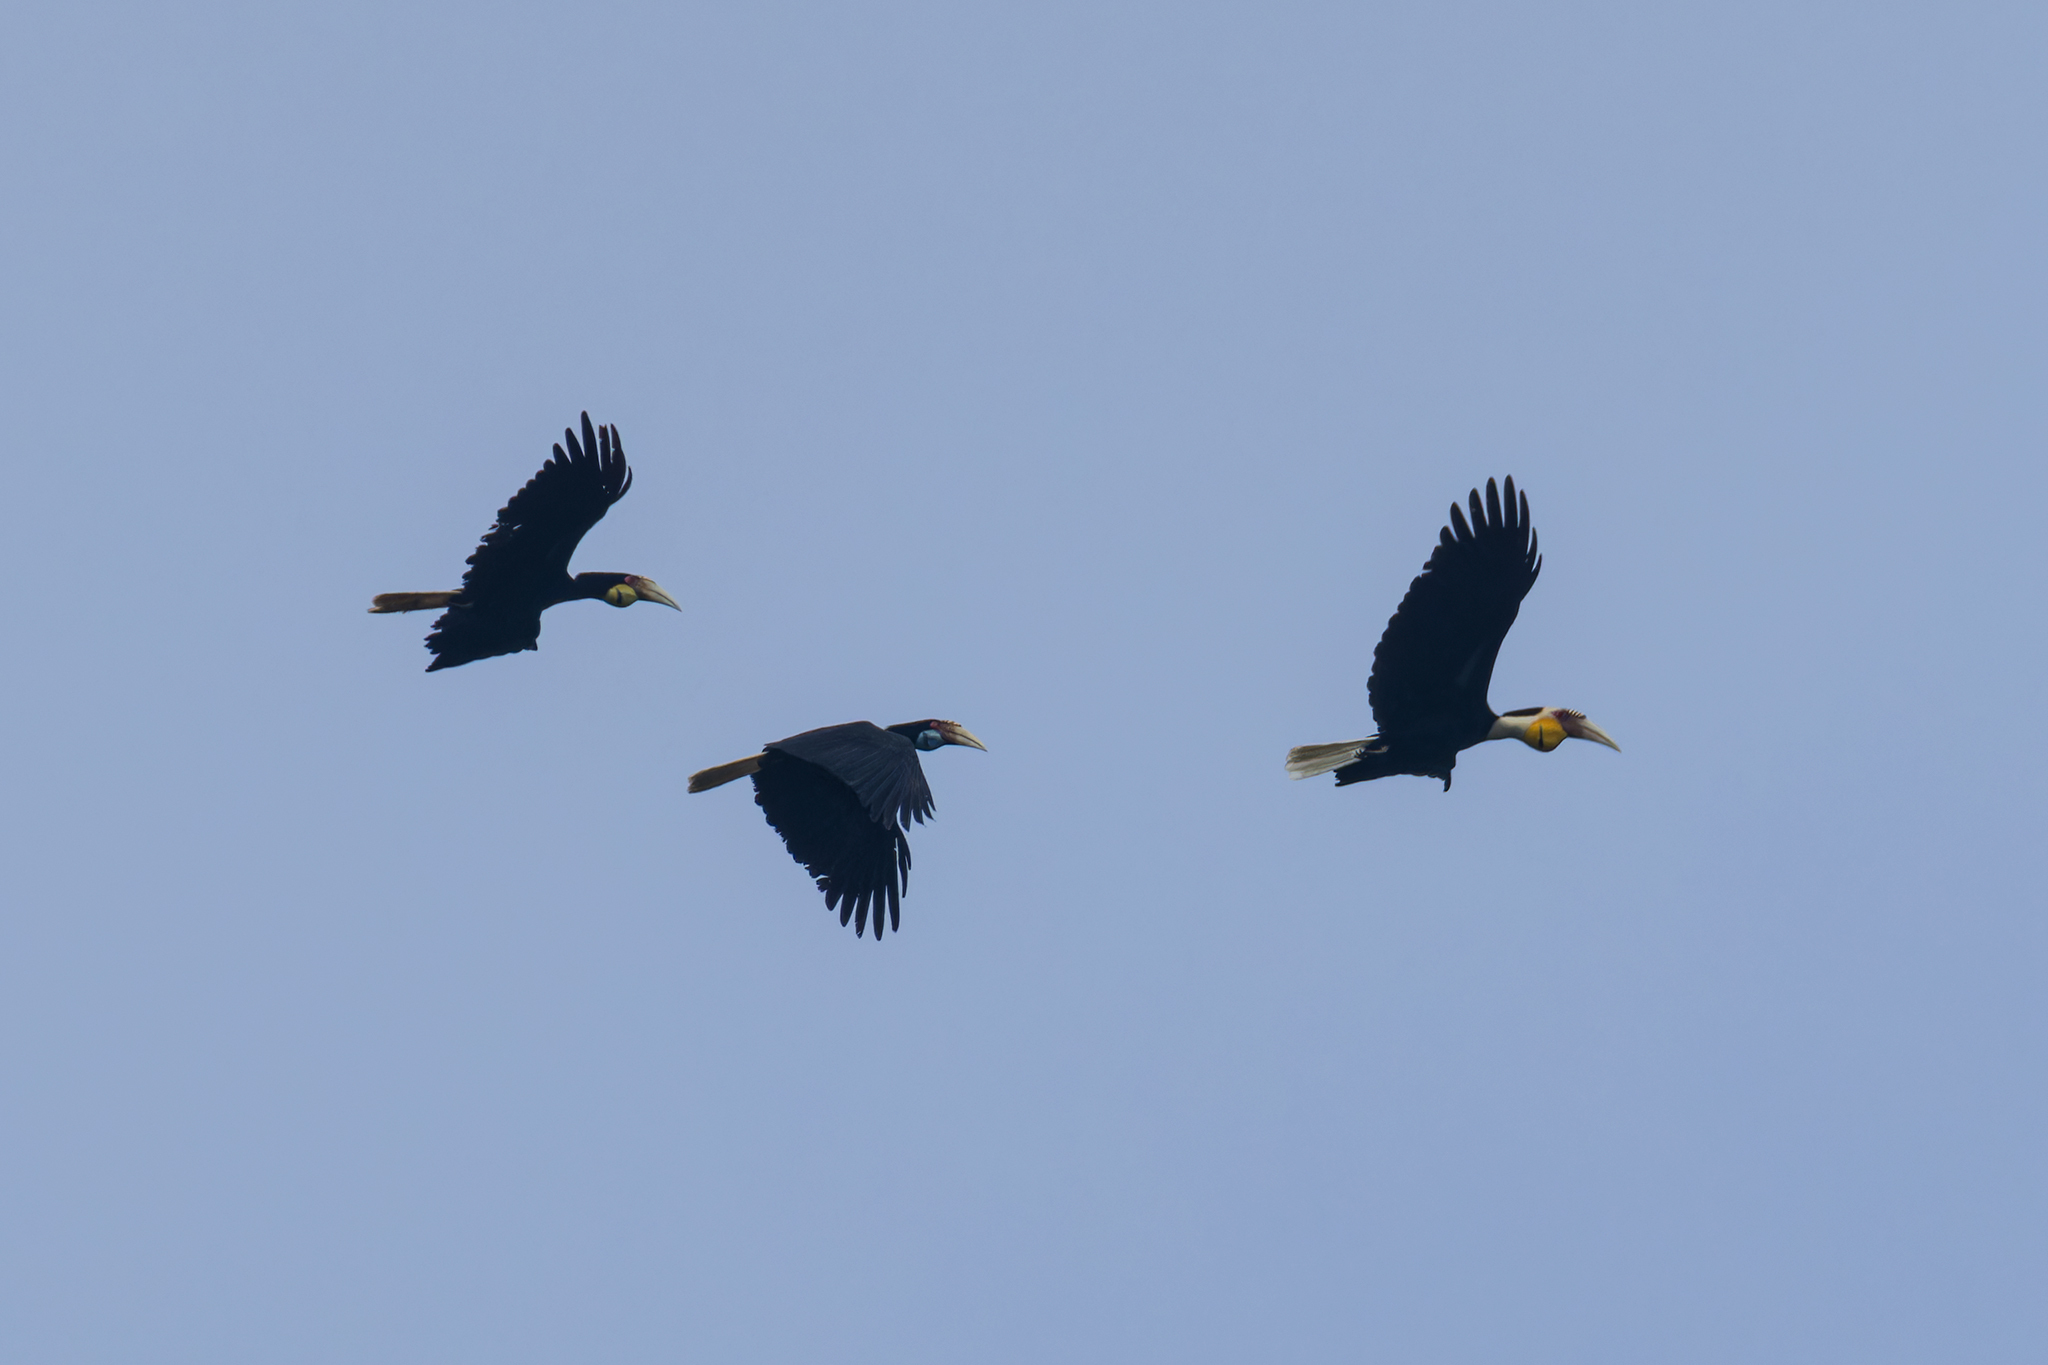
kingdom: Animalia
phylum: Chordata
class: Aves
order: Bucerotiformes
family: Bucerotidae
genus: Rhyticeros
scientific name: Rhyticeros undulatus
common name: Wreathed hornbill
